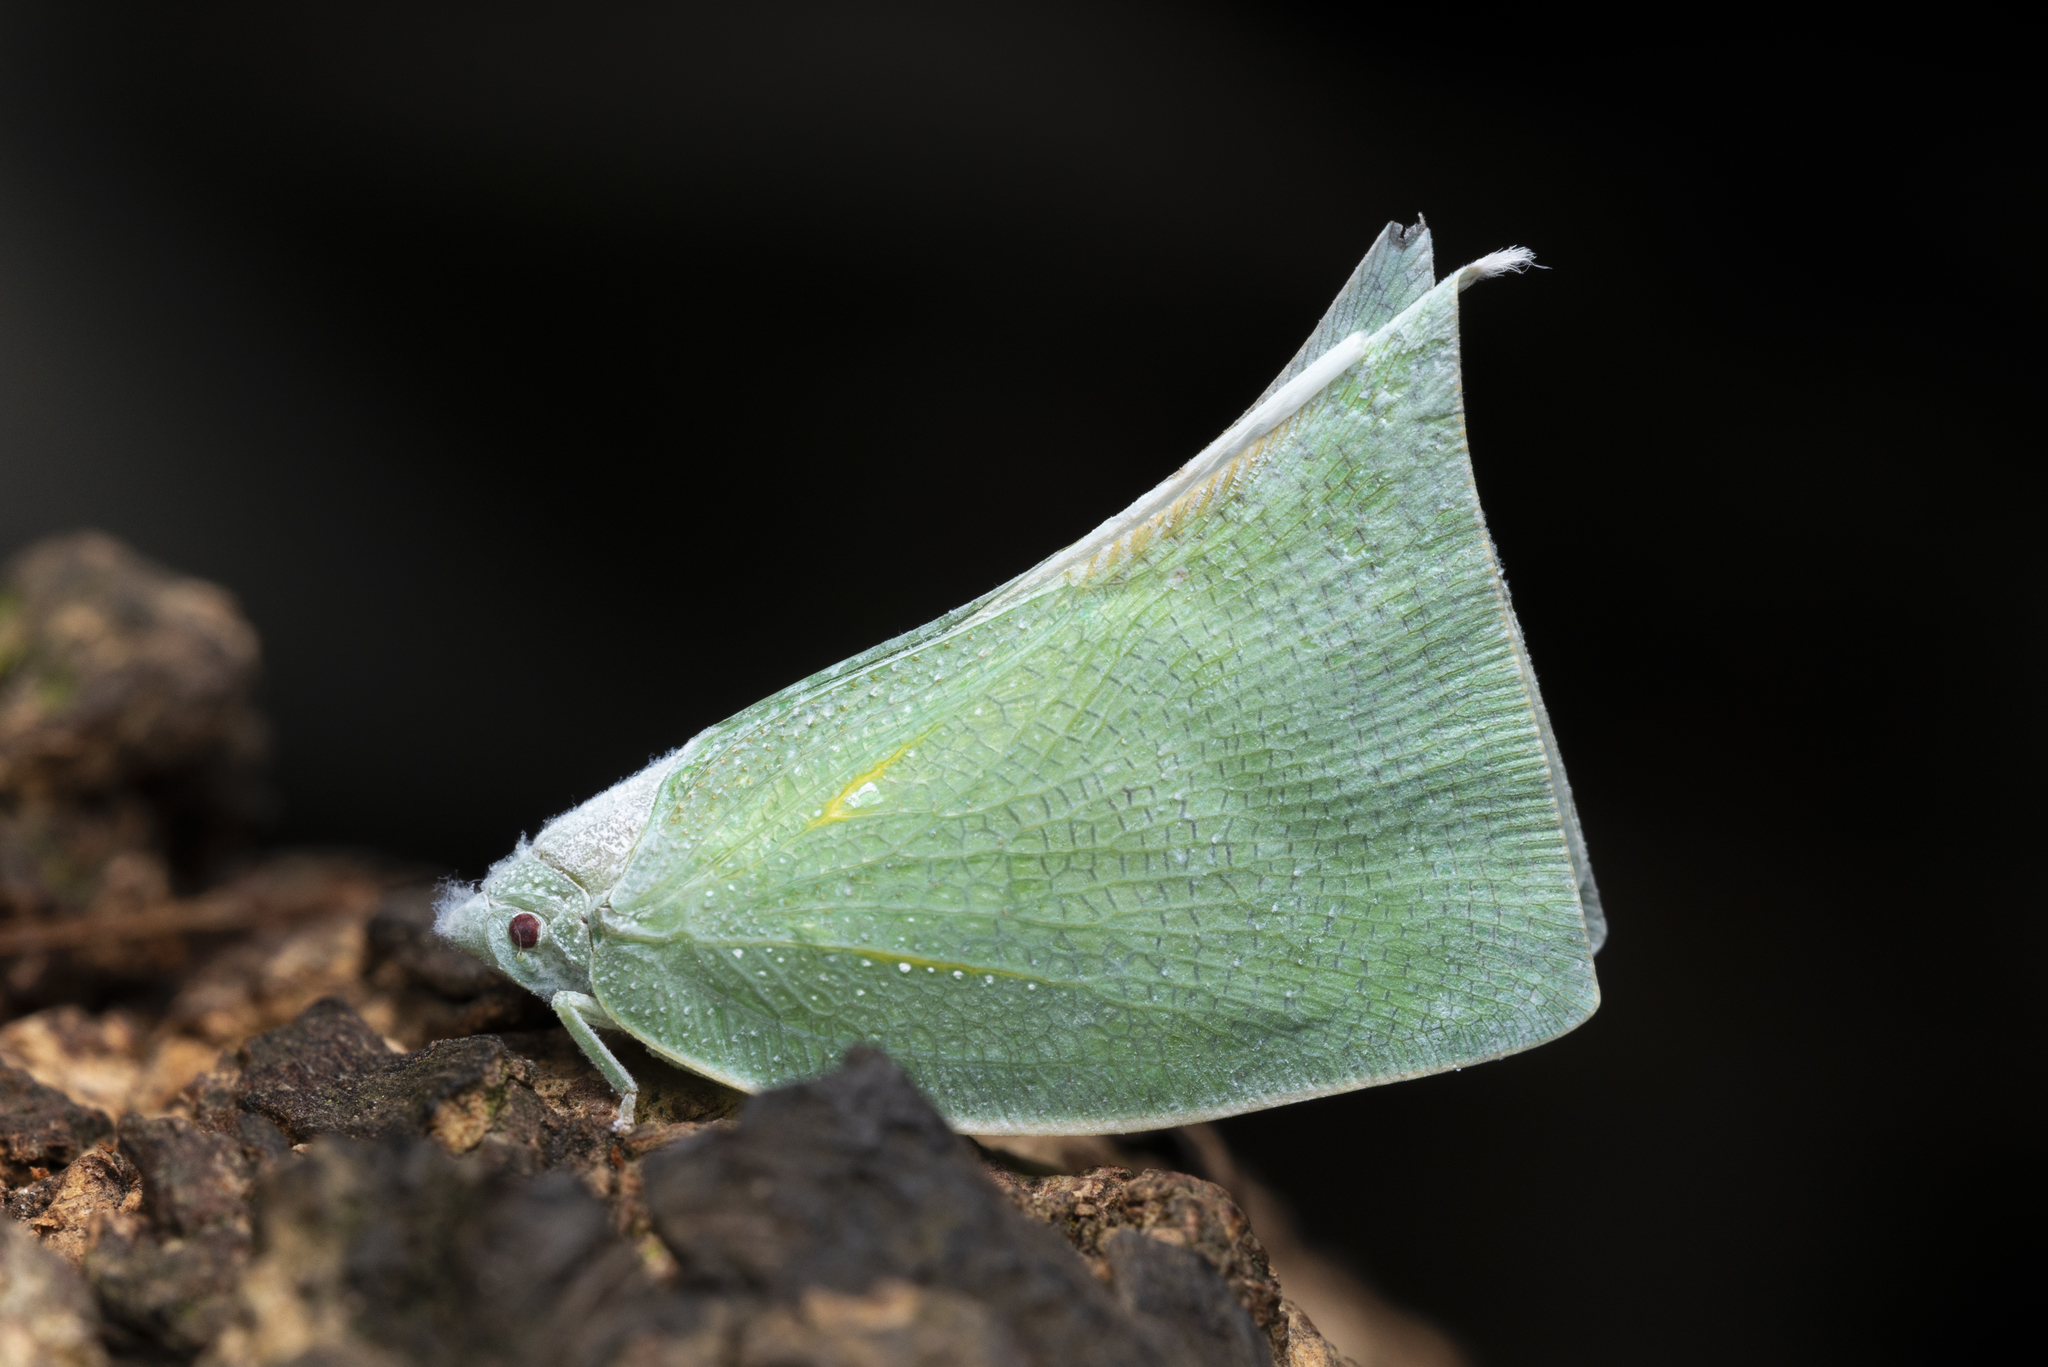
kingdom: Animalia
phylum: Arthropoda
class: Insecta
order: Hemiptera
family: Flatidae
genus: Lawana
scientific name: Lawana imitata
